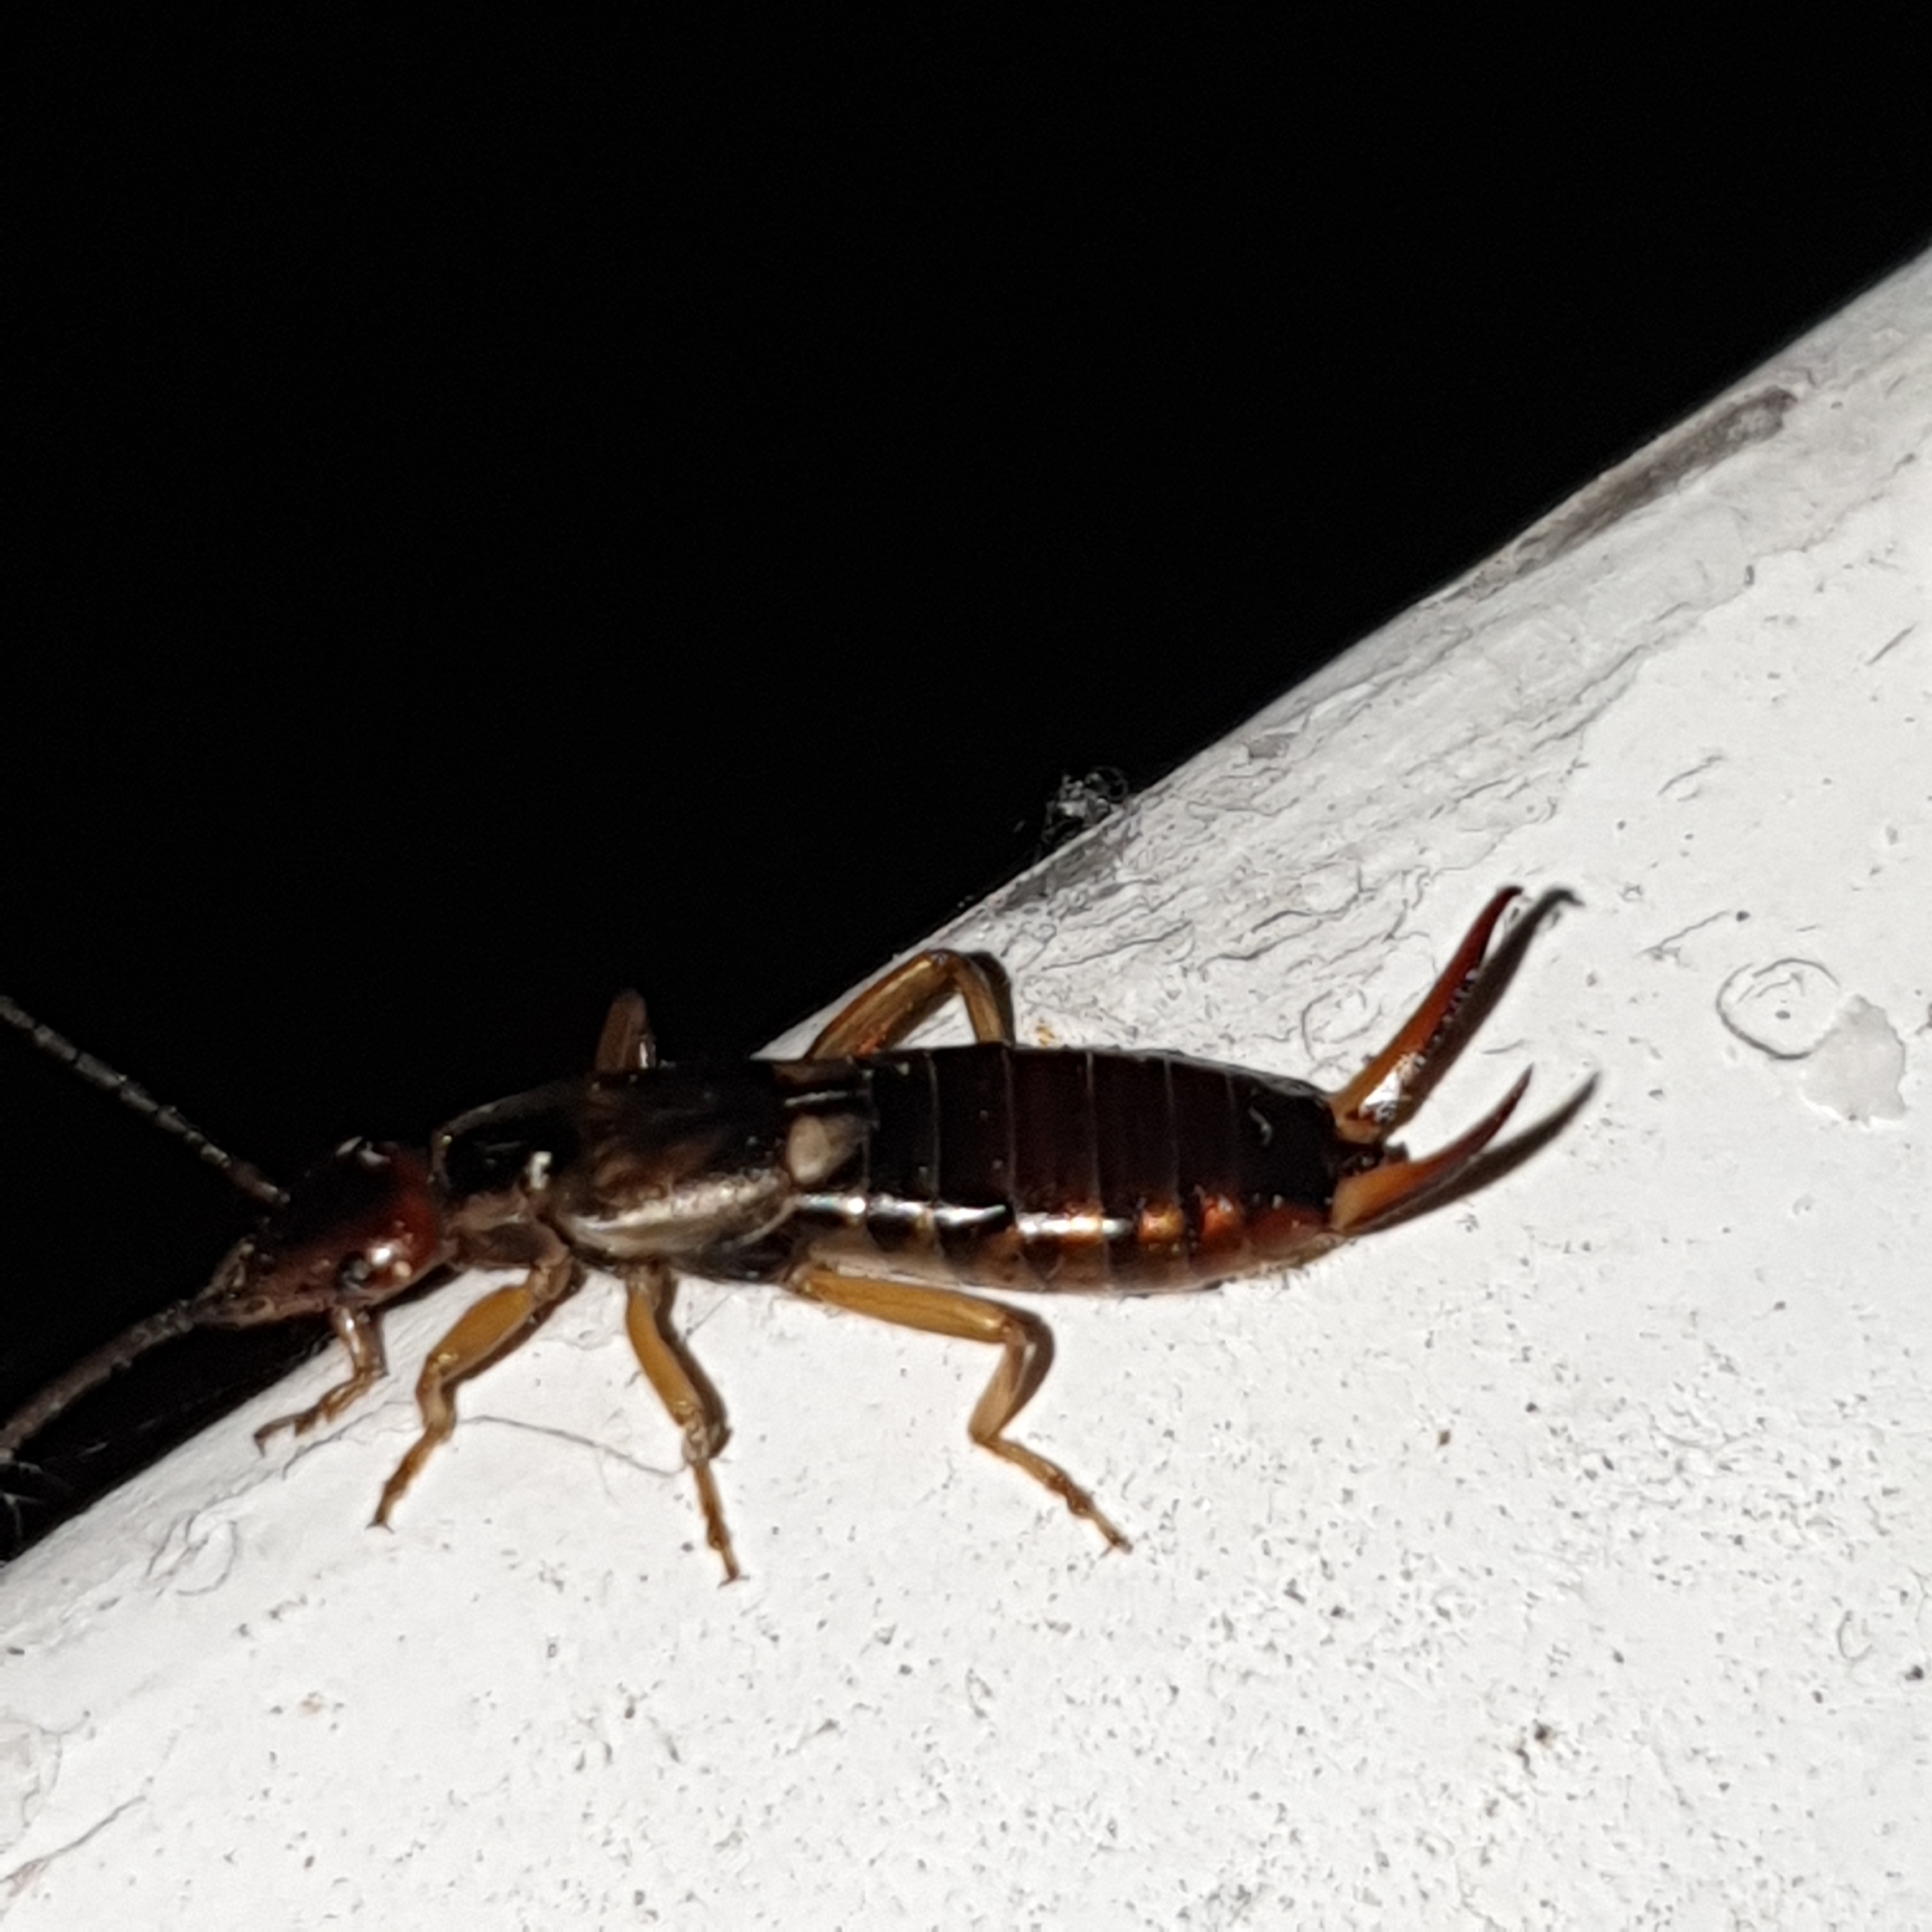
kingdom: Animalia
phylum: Arthropoda
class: Insecta
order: Dermaptera
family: Forficulidae
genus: Forficula
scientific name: Forficula
